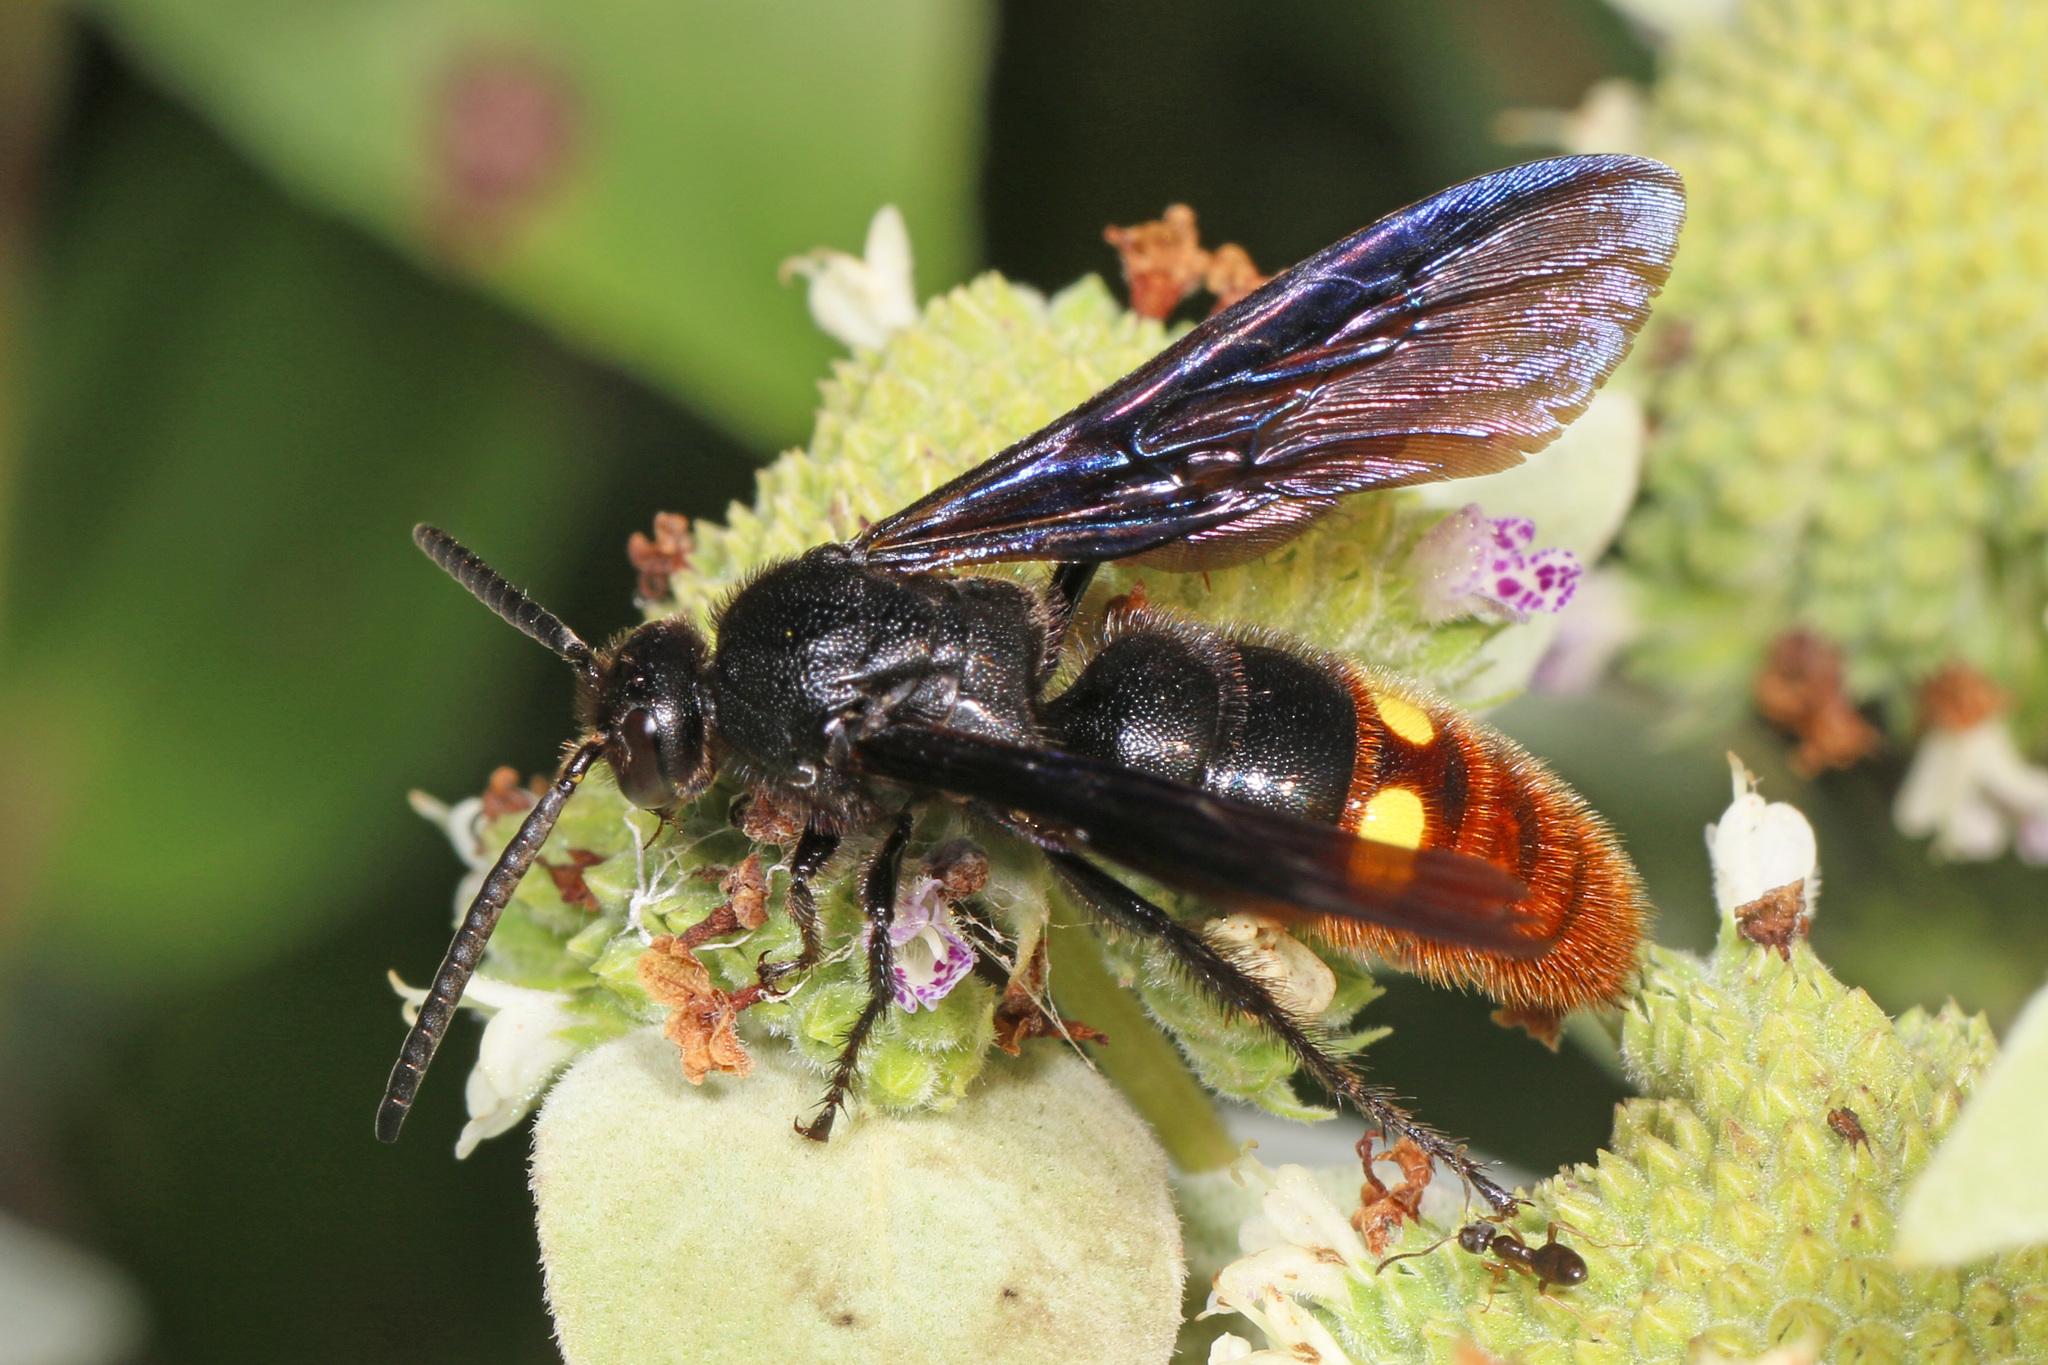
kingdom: Animalia
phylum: Arthropoda
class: Insecta
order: Hymenoptera
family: Scoliidae
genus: Scolia
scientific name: Scolia dubia
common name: Blue-winged scoliid wasp
